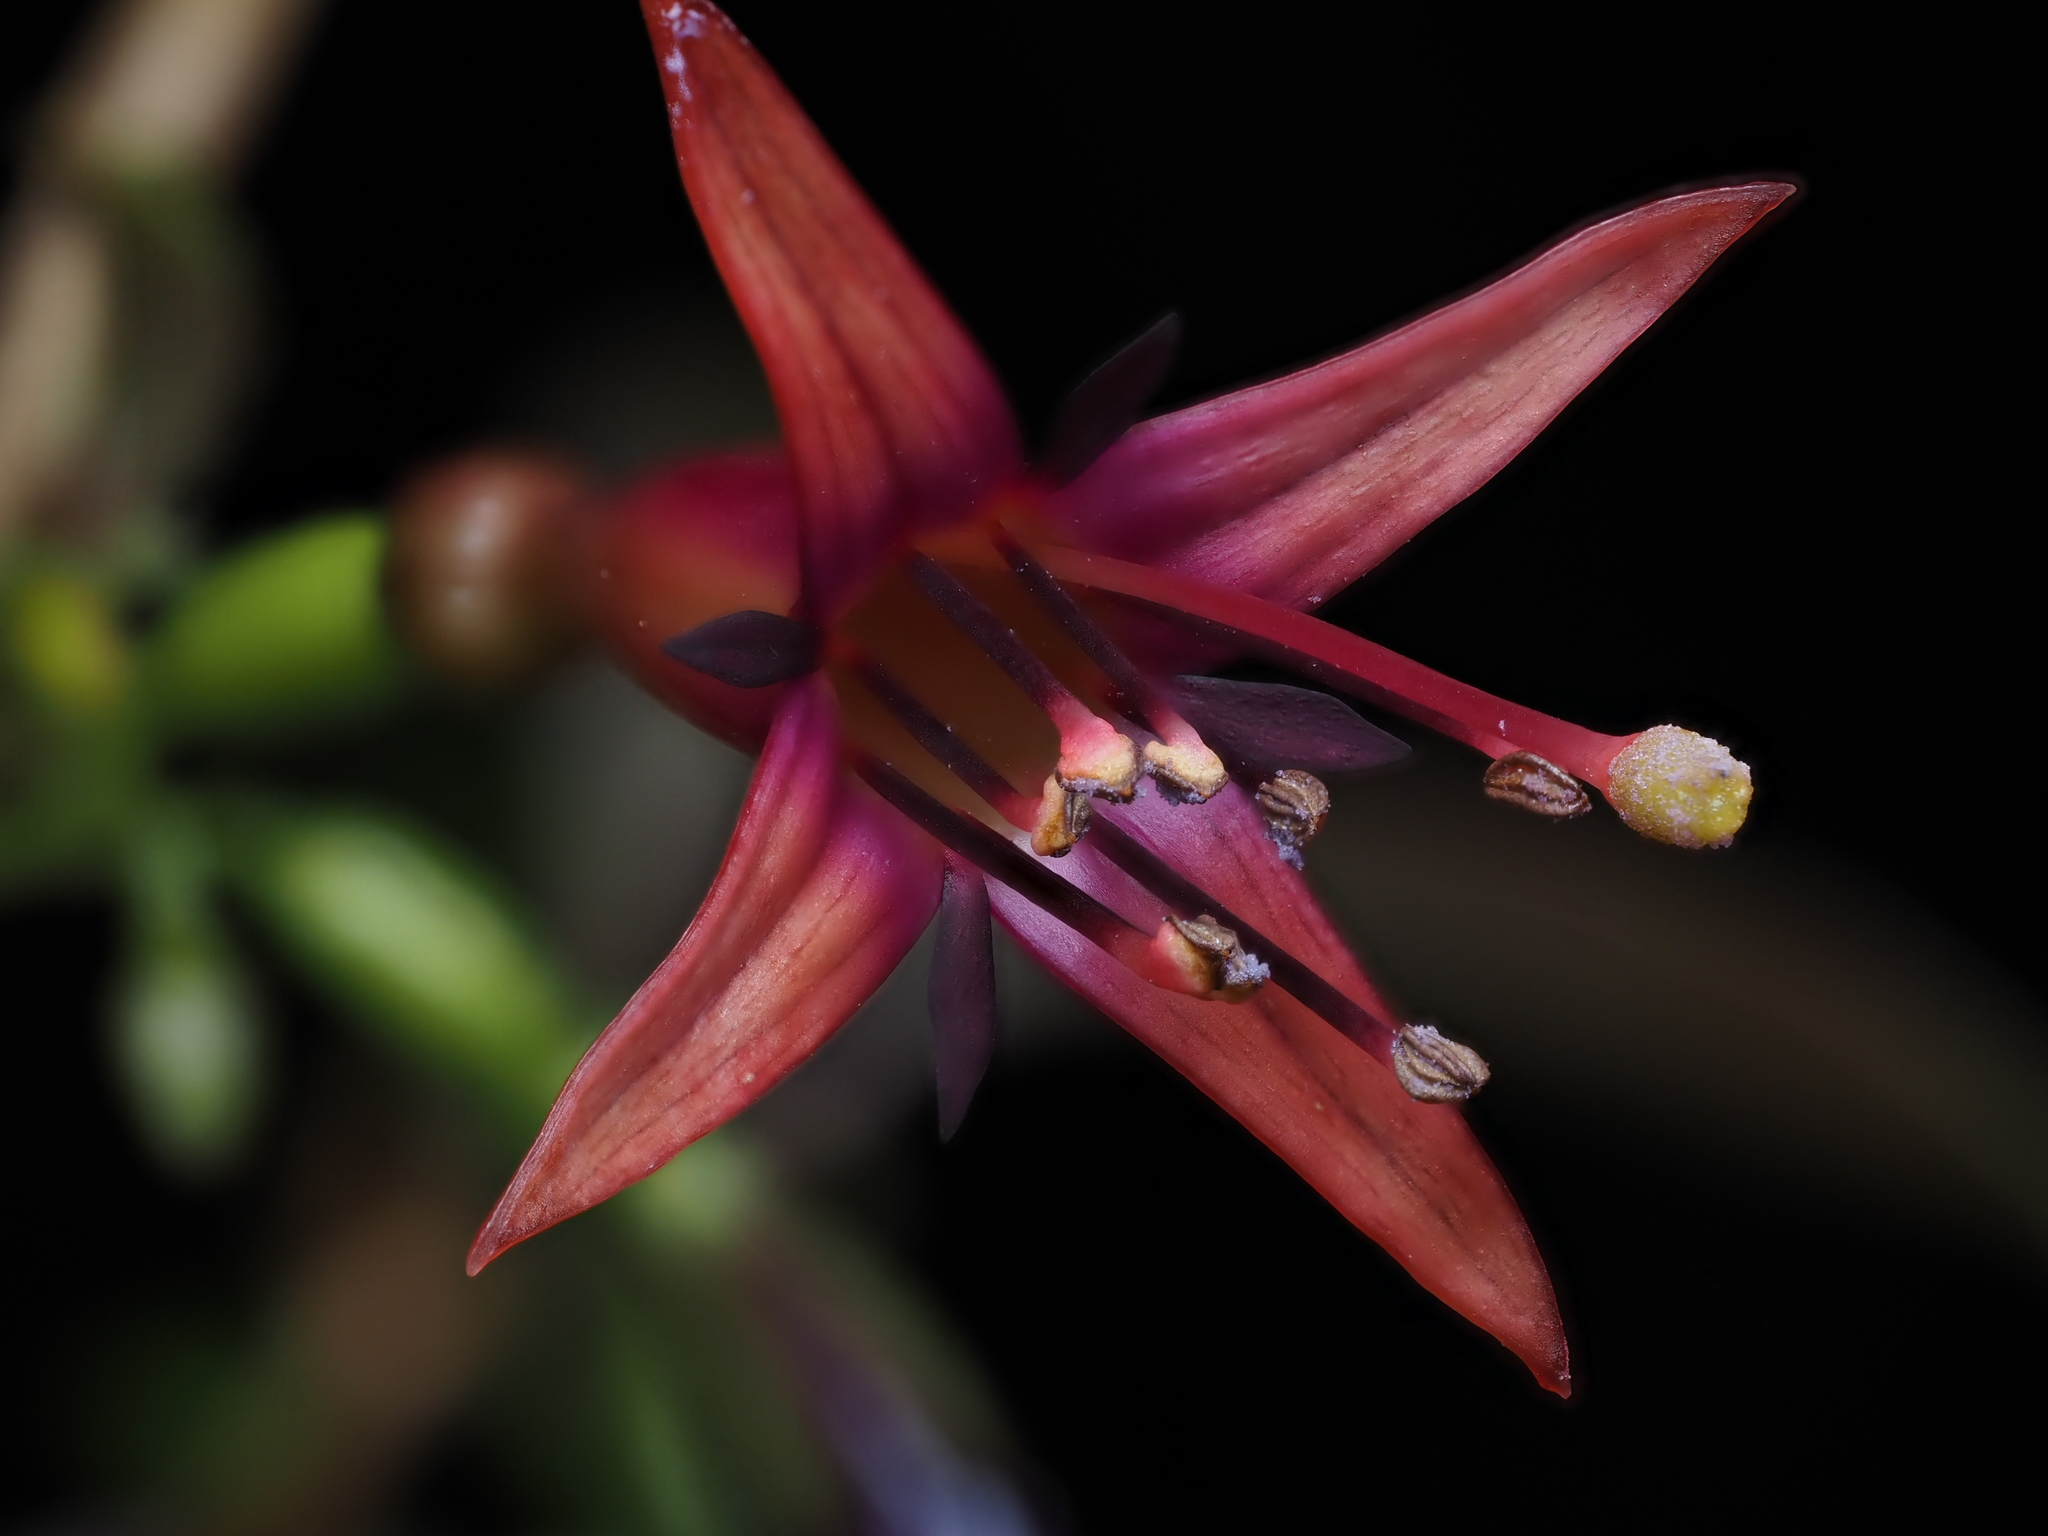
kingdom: Plantae
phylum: Tracheophyta
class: Magnoliopsida
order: Myrtales
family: Onagraceae
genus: Fuchsia
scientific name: Fuchsia excorticata
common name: Tree fuchsia
